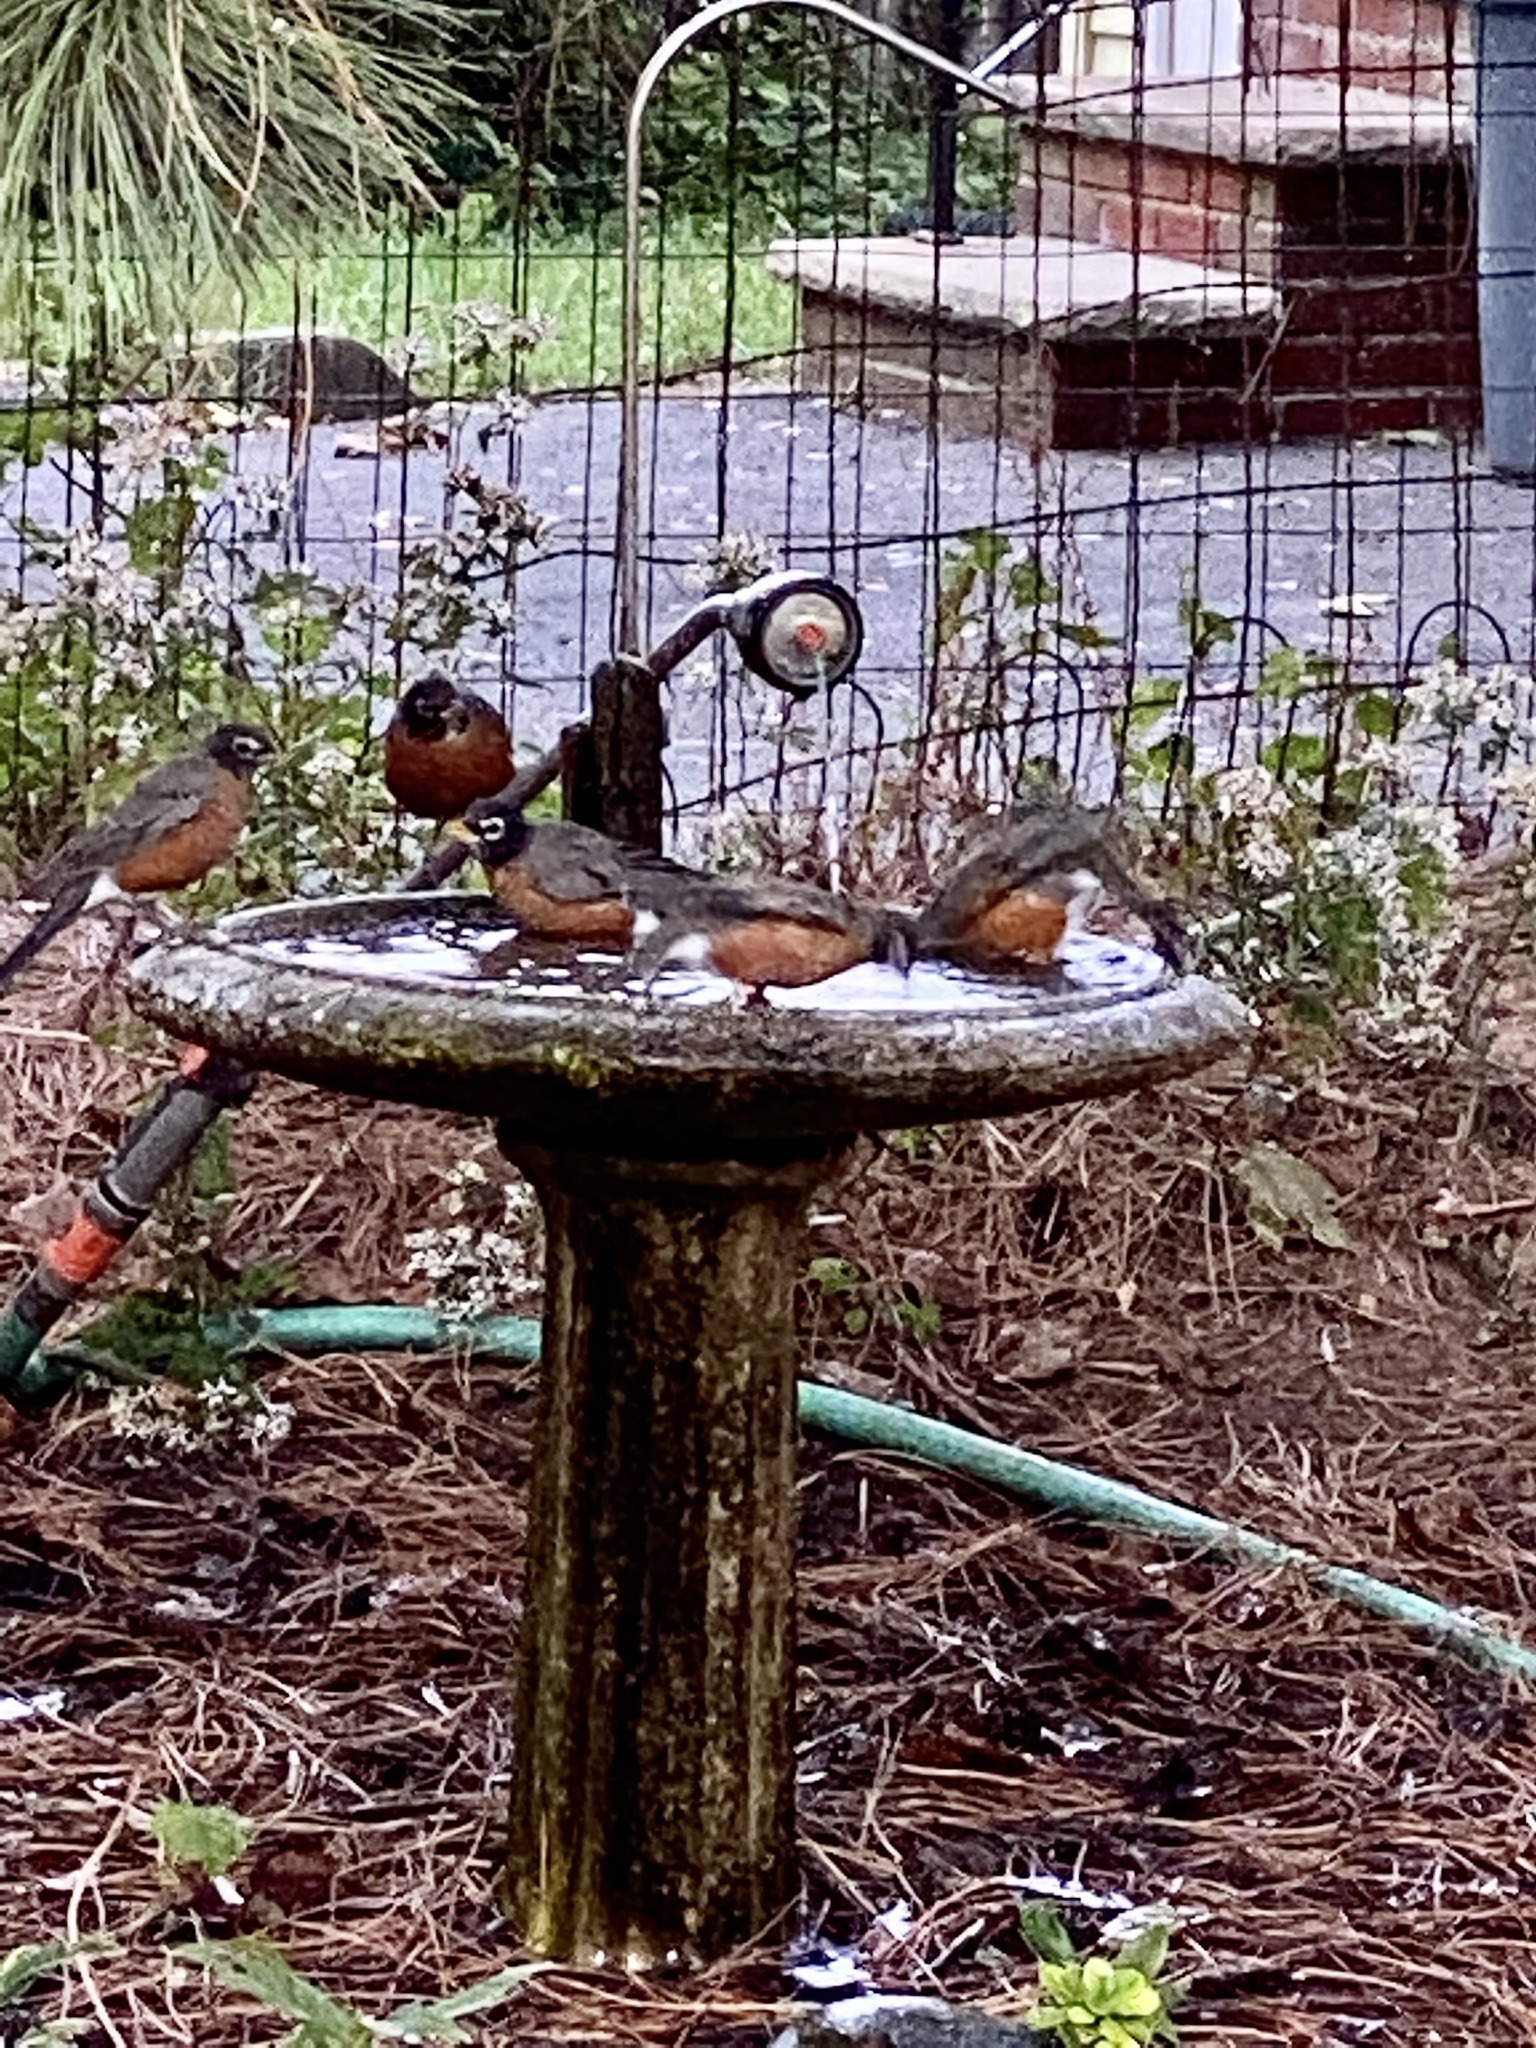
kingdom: Animalia
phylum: Chordata
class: Aves
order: Passeriformes
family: Turdidae
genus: Turdus
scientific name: Turdus migratorius
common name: American robin
